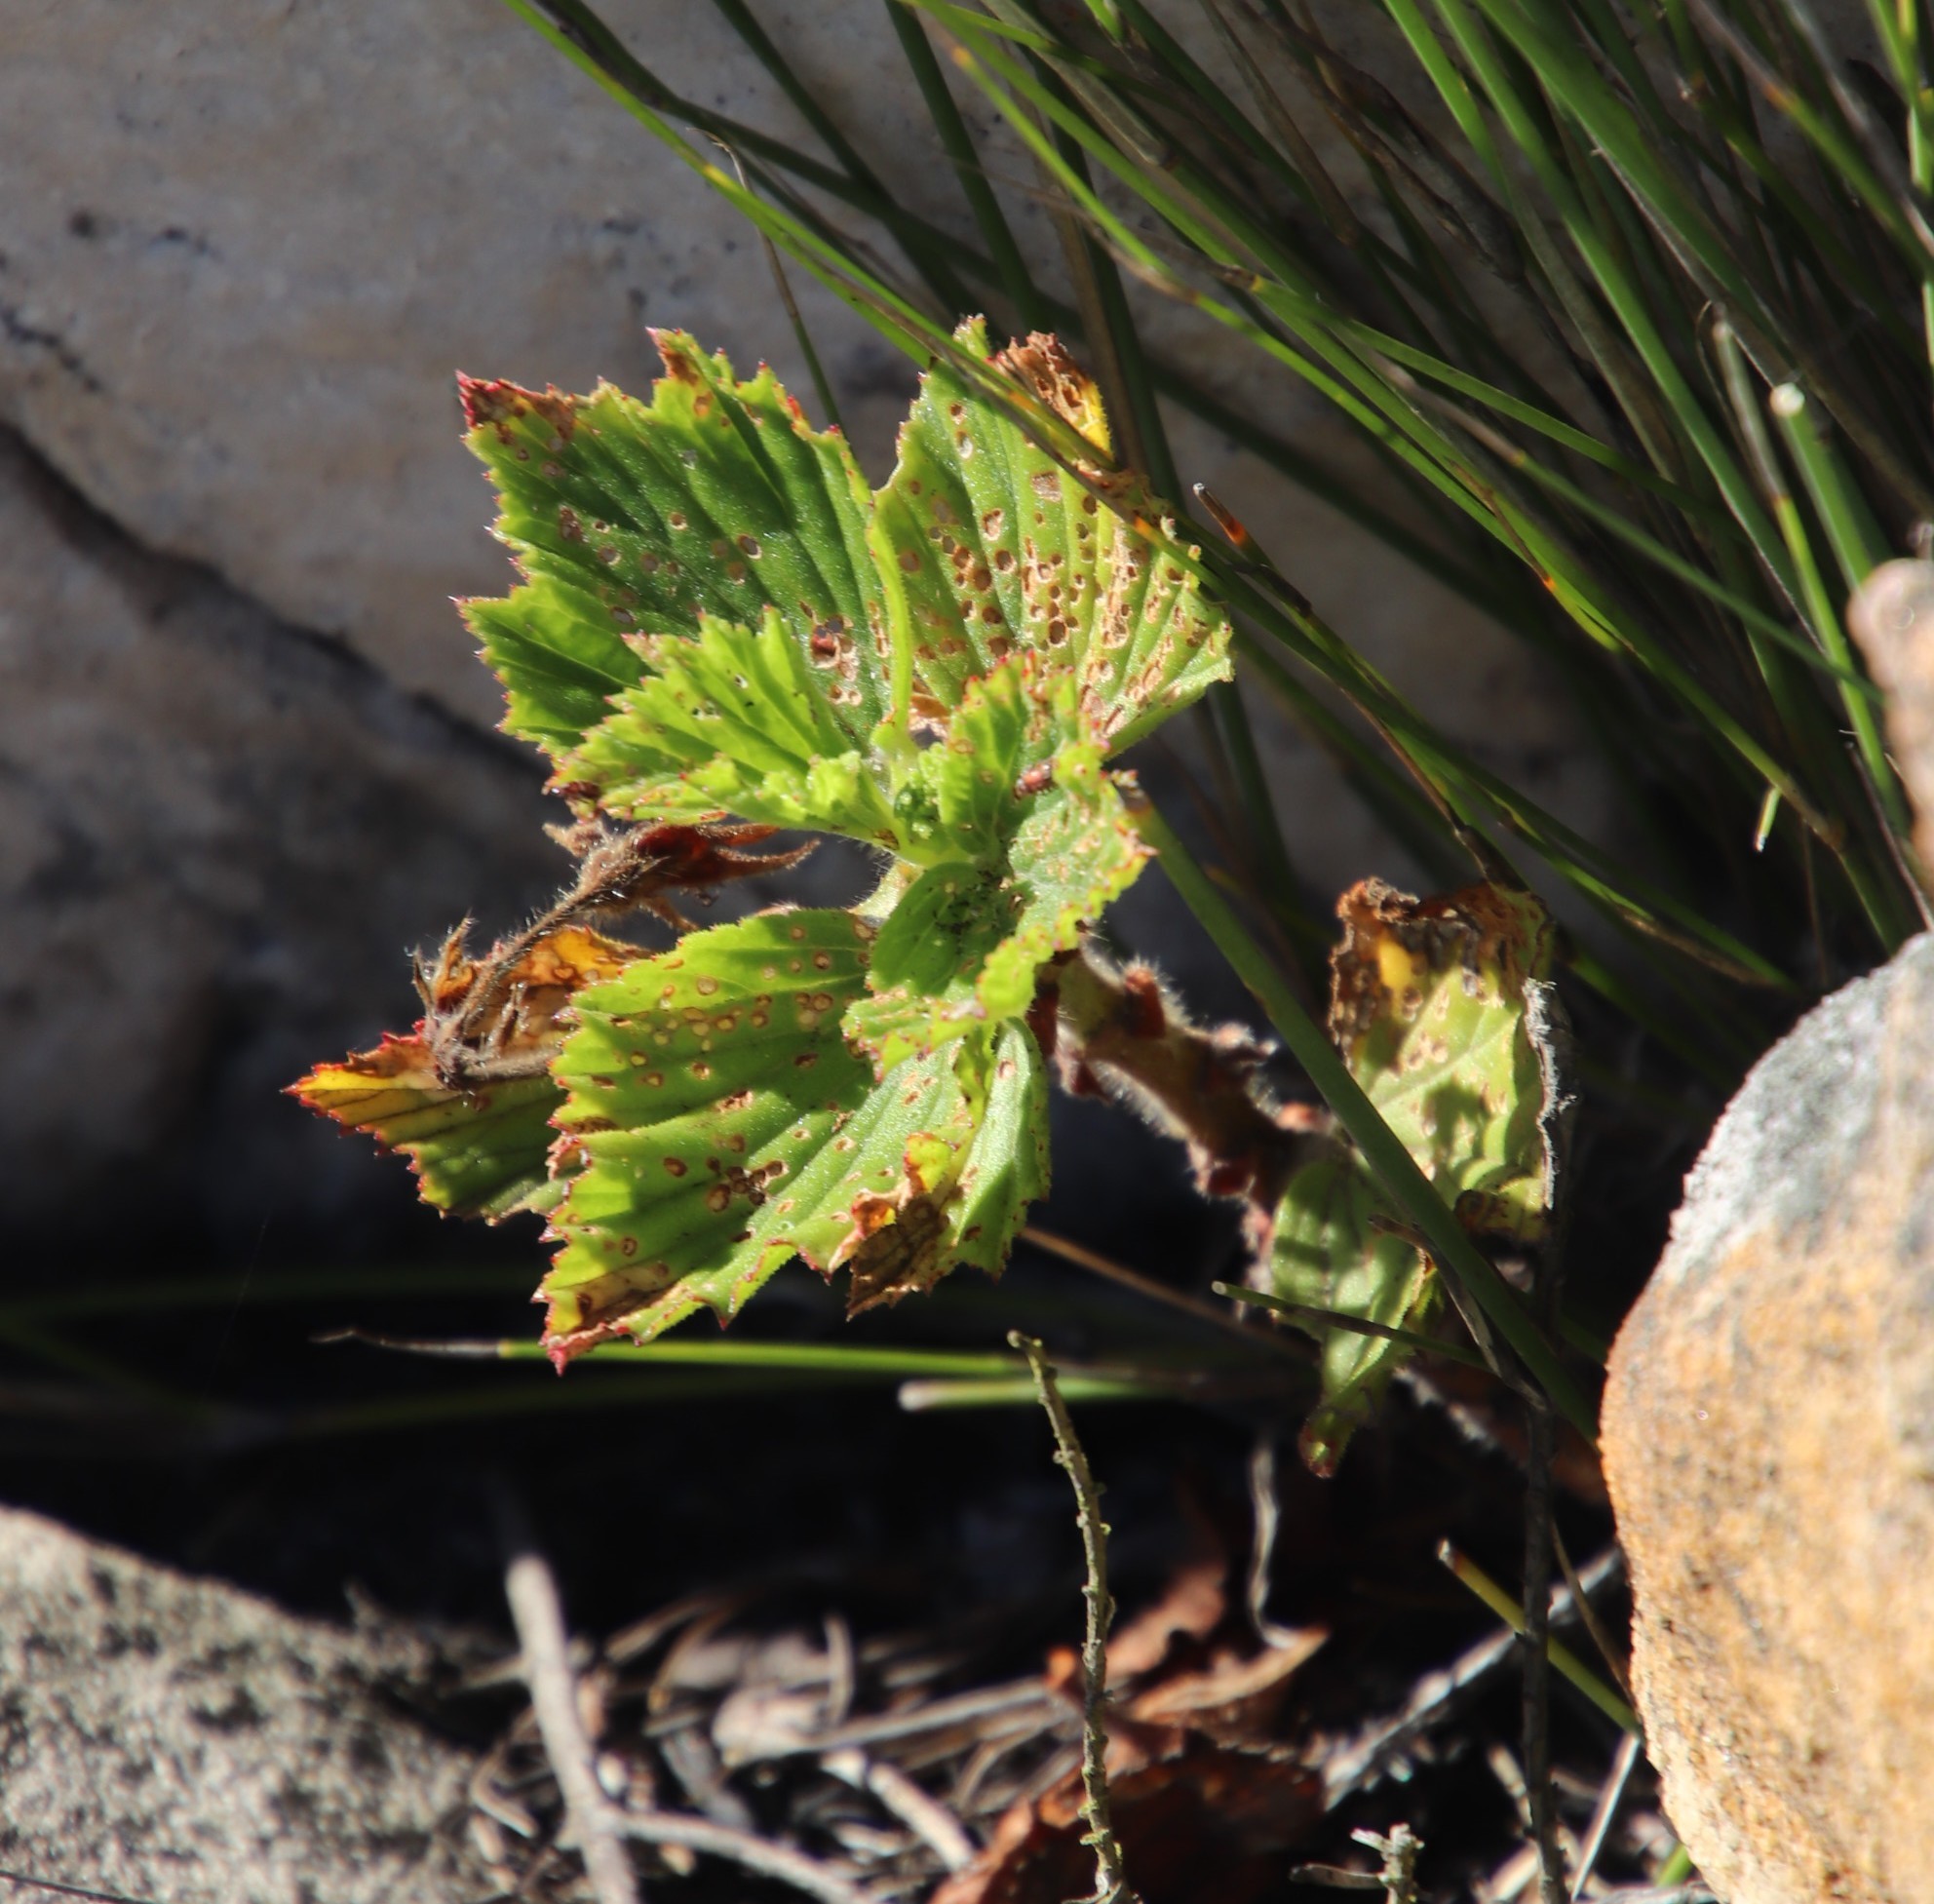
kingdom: Plantae
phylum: Tracheophyta
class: Magnoliopsida
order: Geraniales
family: Geraniaceae
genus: Pelargonium
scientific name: Pelargonium cucullatum
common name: Tree pelargonium
